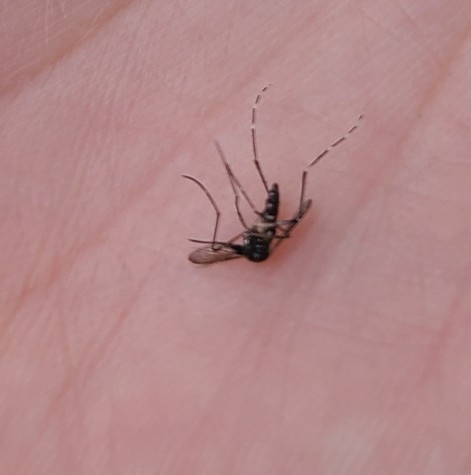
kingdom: Animalia
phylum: Arthropoda
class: Insecta
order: Diptera
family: Culicidae
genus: Aedes
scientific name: Aedes albopictus
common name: Tiger mosquito
